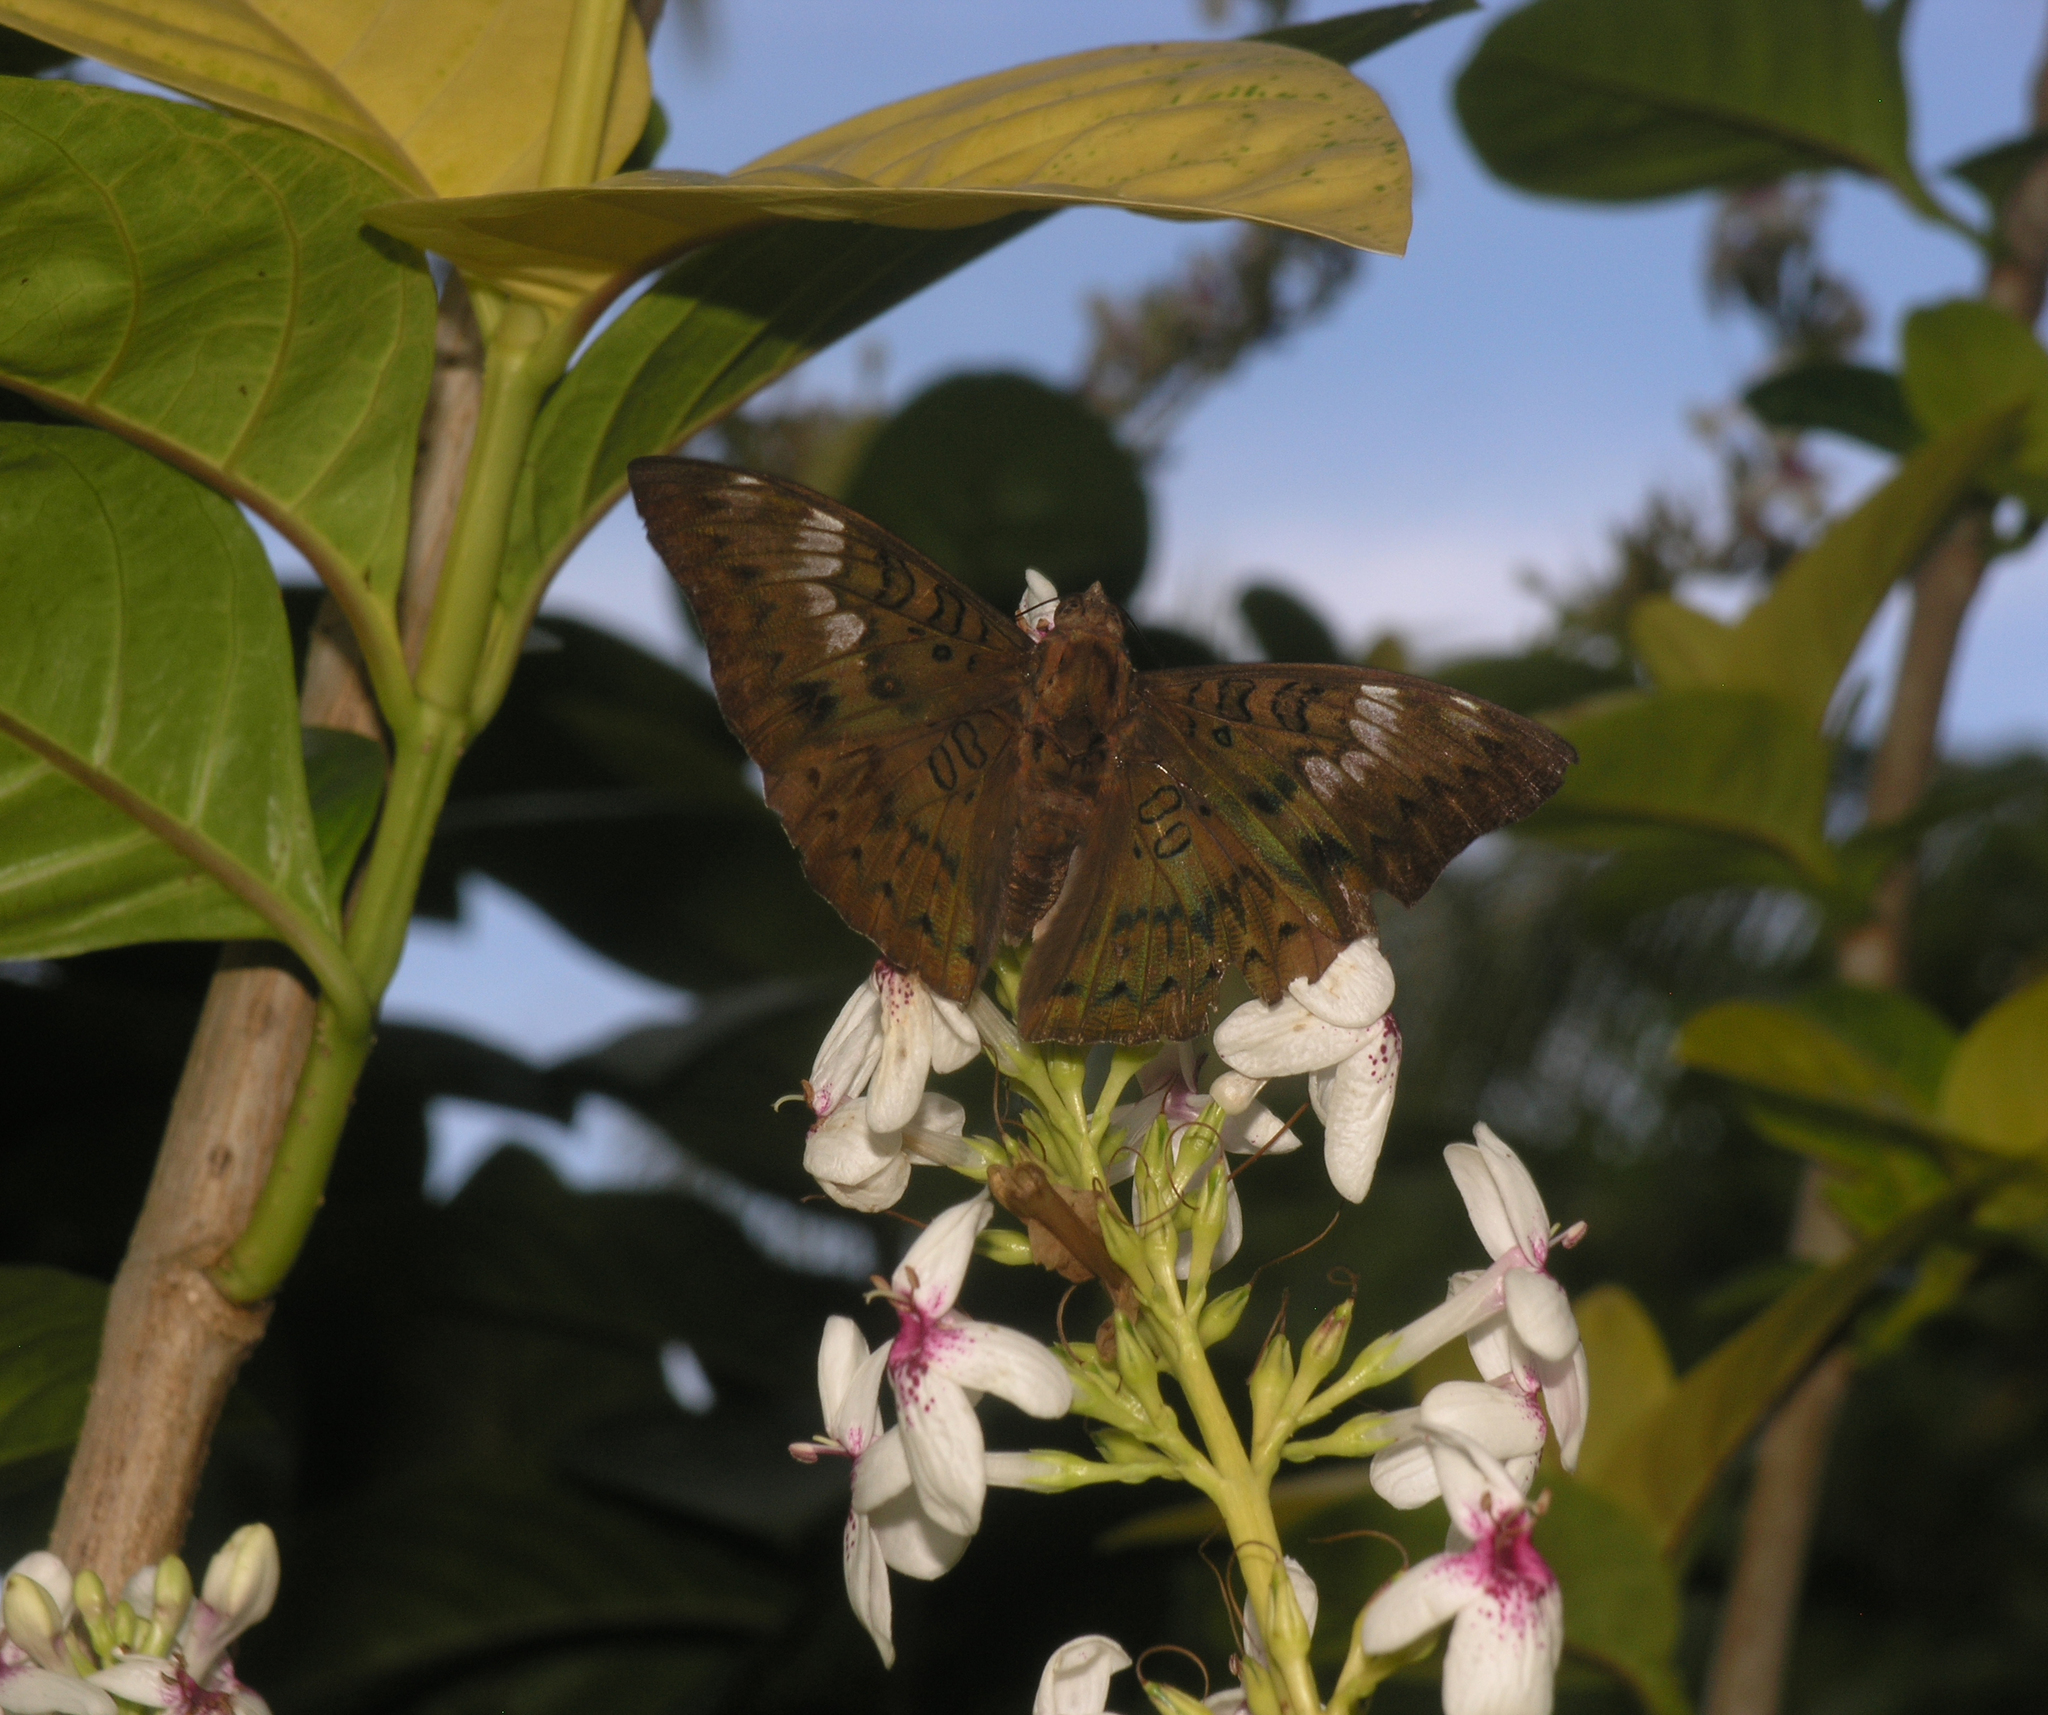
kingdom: Animalia
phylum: Arthropoda
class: Insecta
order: Lepidoptera
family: Nymphalidae
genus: Euthalia
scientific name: Euthalia aconthea
